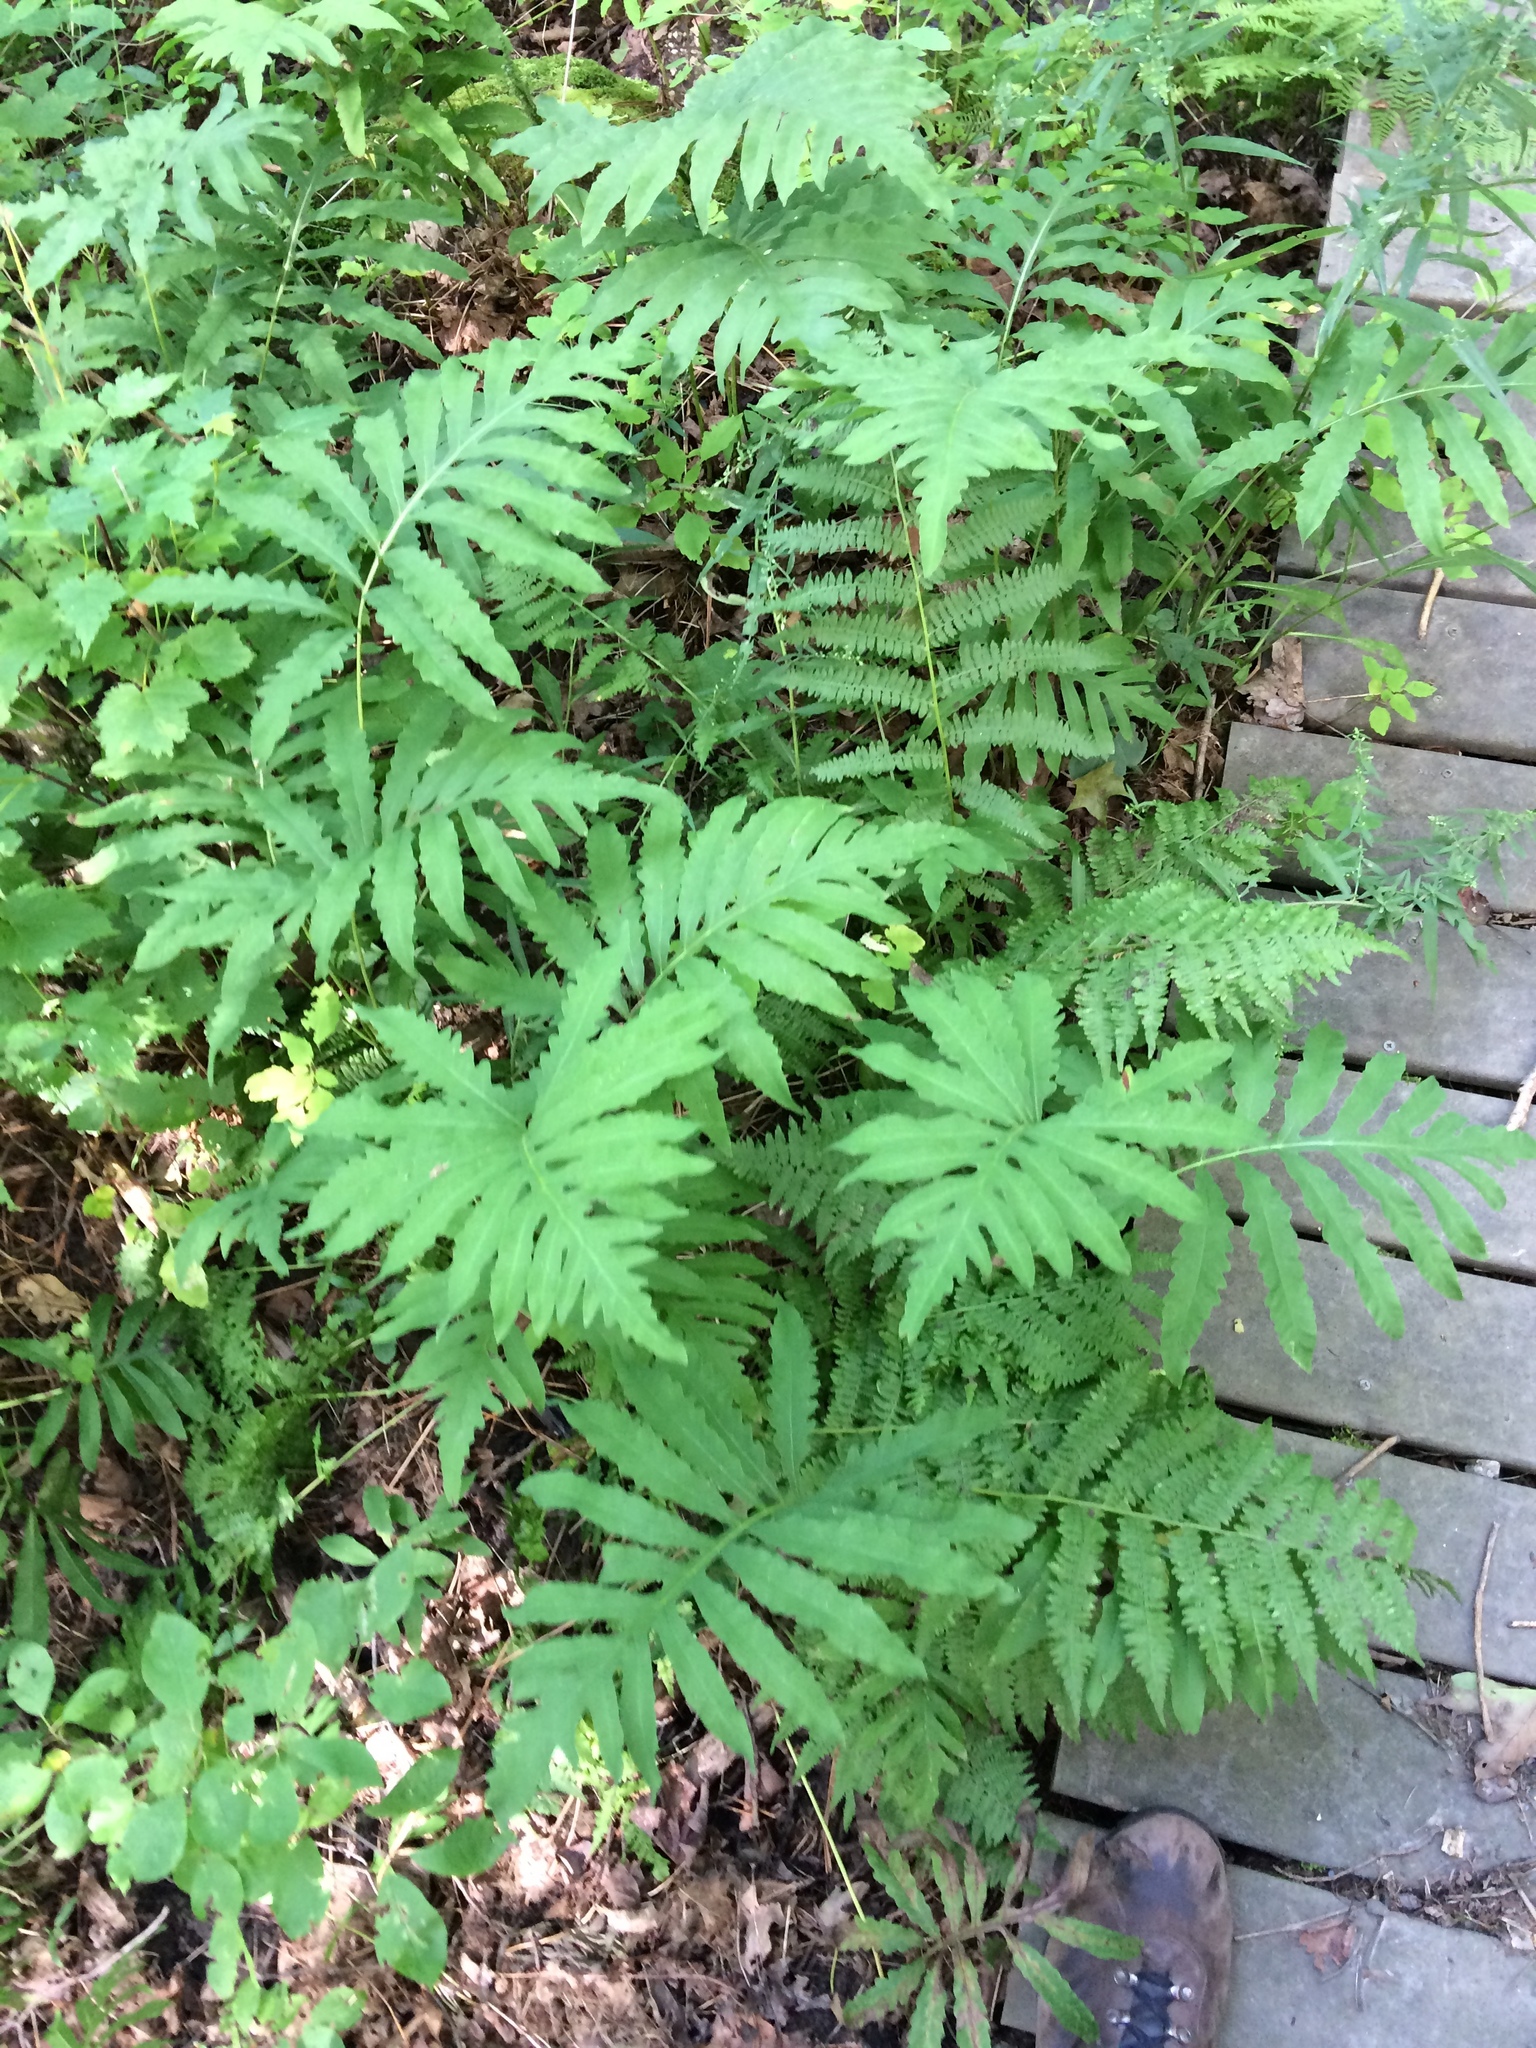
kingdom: Plantae
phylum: Tracheophyta
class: Polypodiopsida
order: Polypodiales
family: Onocleaceae
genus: Onoclea
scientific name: Onoclea sensibilis
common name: Sensitive fern
